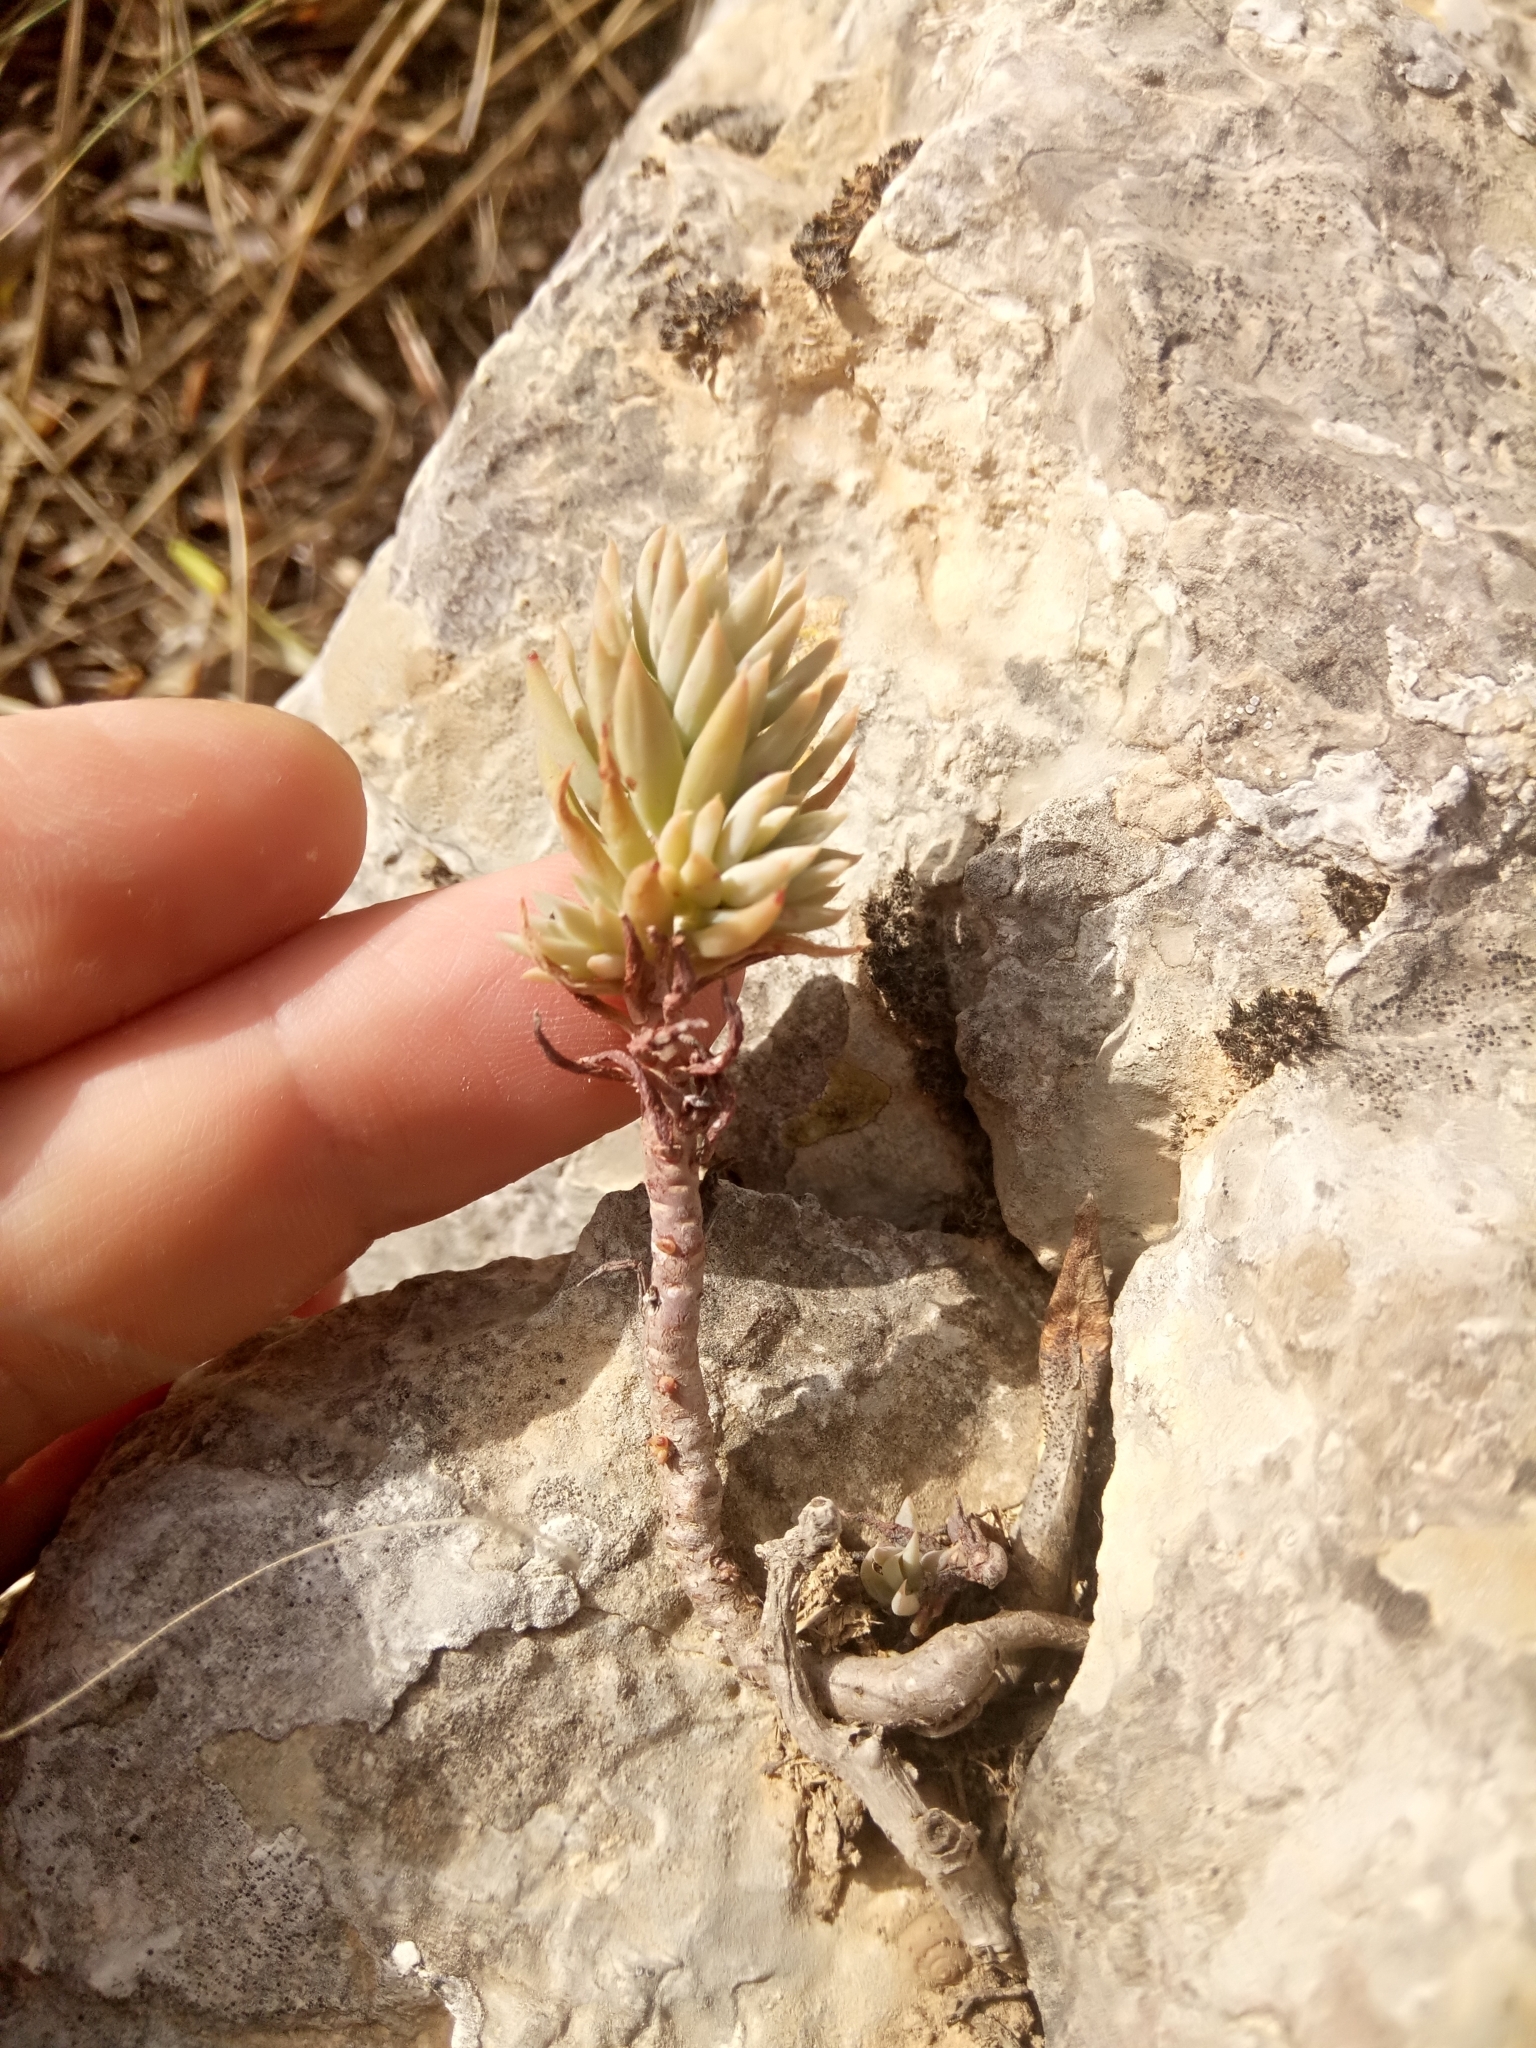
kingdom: Plantae
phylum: Tracheophyta
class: Magnoliopsida
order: Saxifragales
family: Crassulaceae
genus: Petrosedum
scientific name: Petrosedum sediforme
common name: Pale stonecrop
